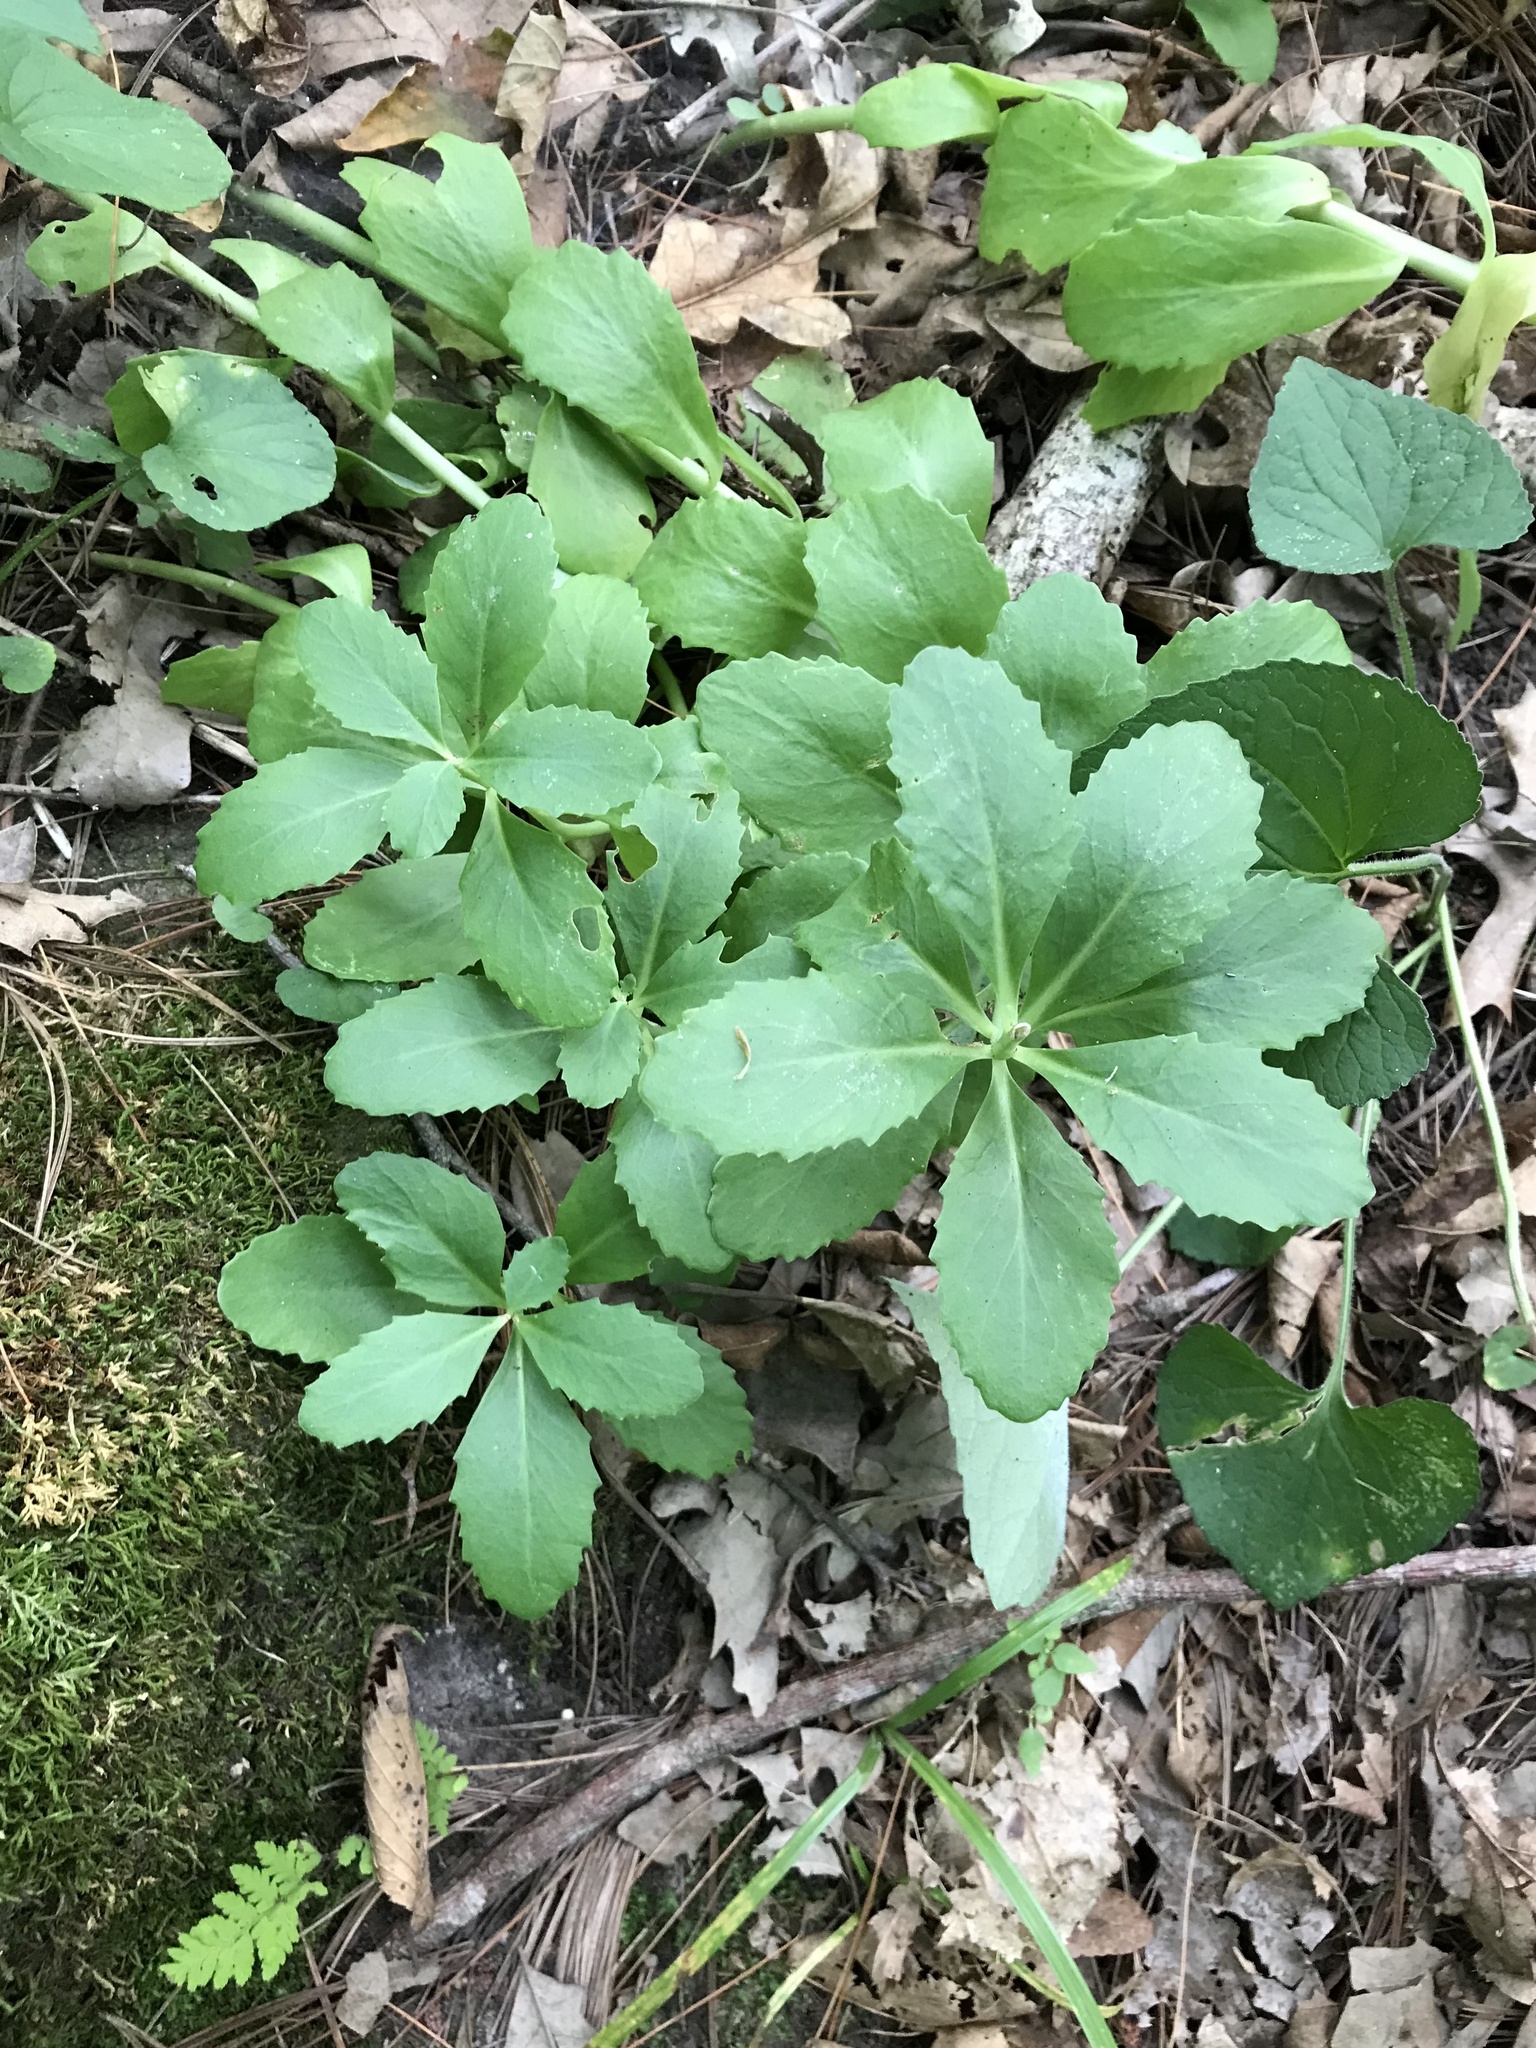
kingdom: Plantae
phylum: Tracheophyta
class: Magnoliopsida
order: Saxifragales
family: Crassulaceae
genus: Hylotelephium
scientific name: Hylotelephium telephium
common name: Live-forever
